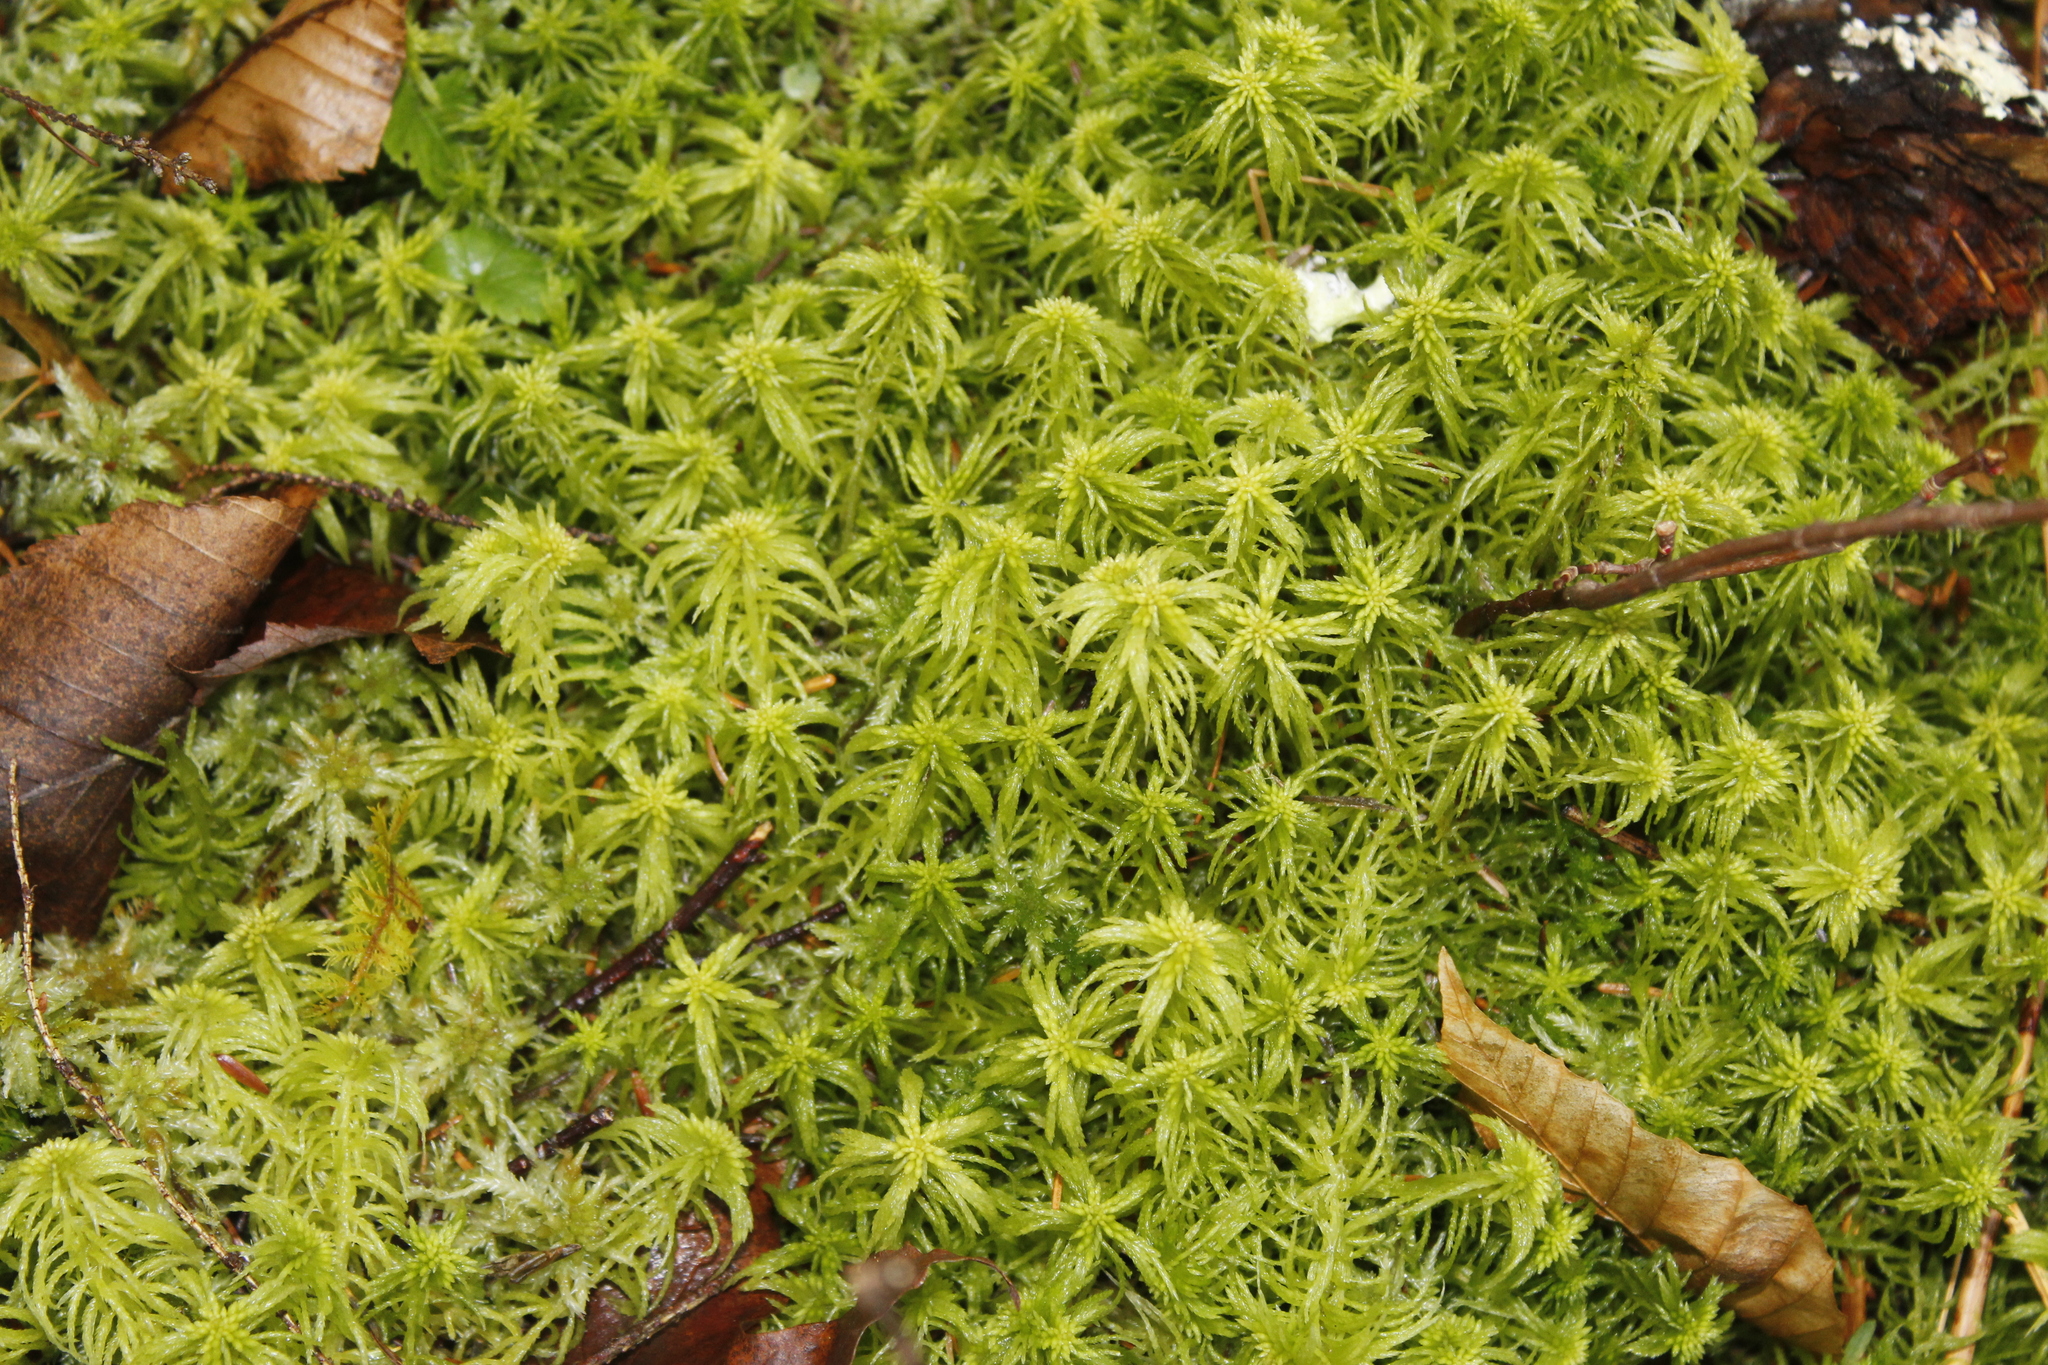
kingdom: Plantae
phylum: Bryophyta
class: Sphagnopsida
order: Sphagnales
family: Sphagnaceae
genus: Sphagnum
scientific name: Sphagnum girgensohnii
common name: Girgensohn's peat moss
